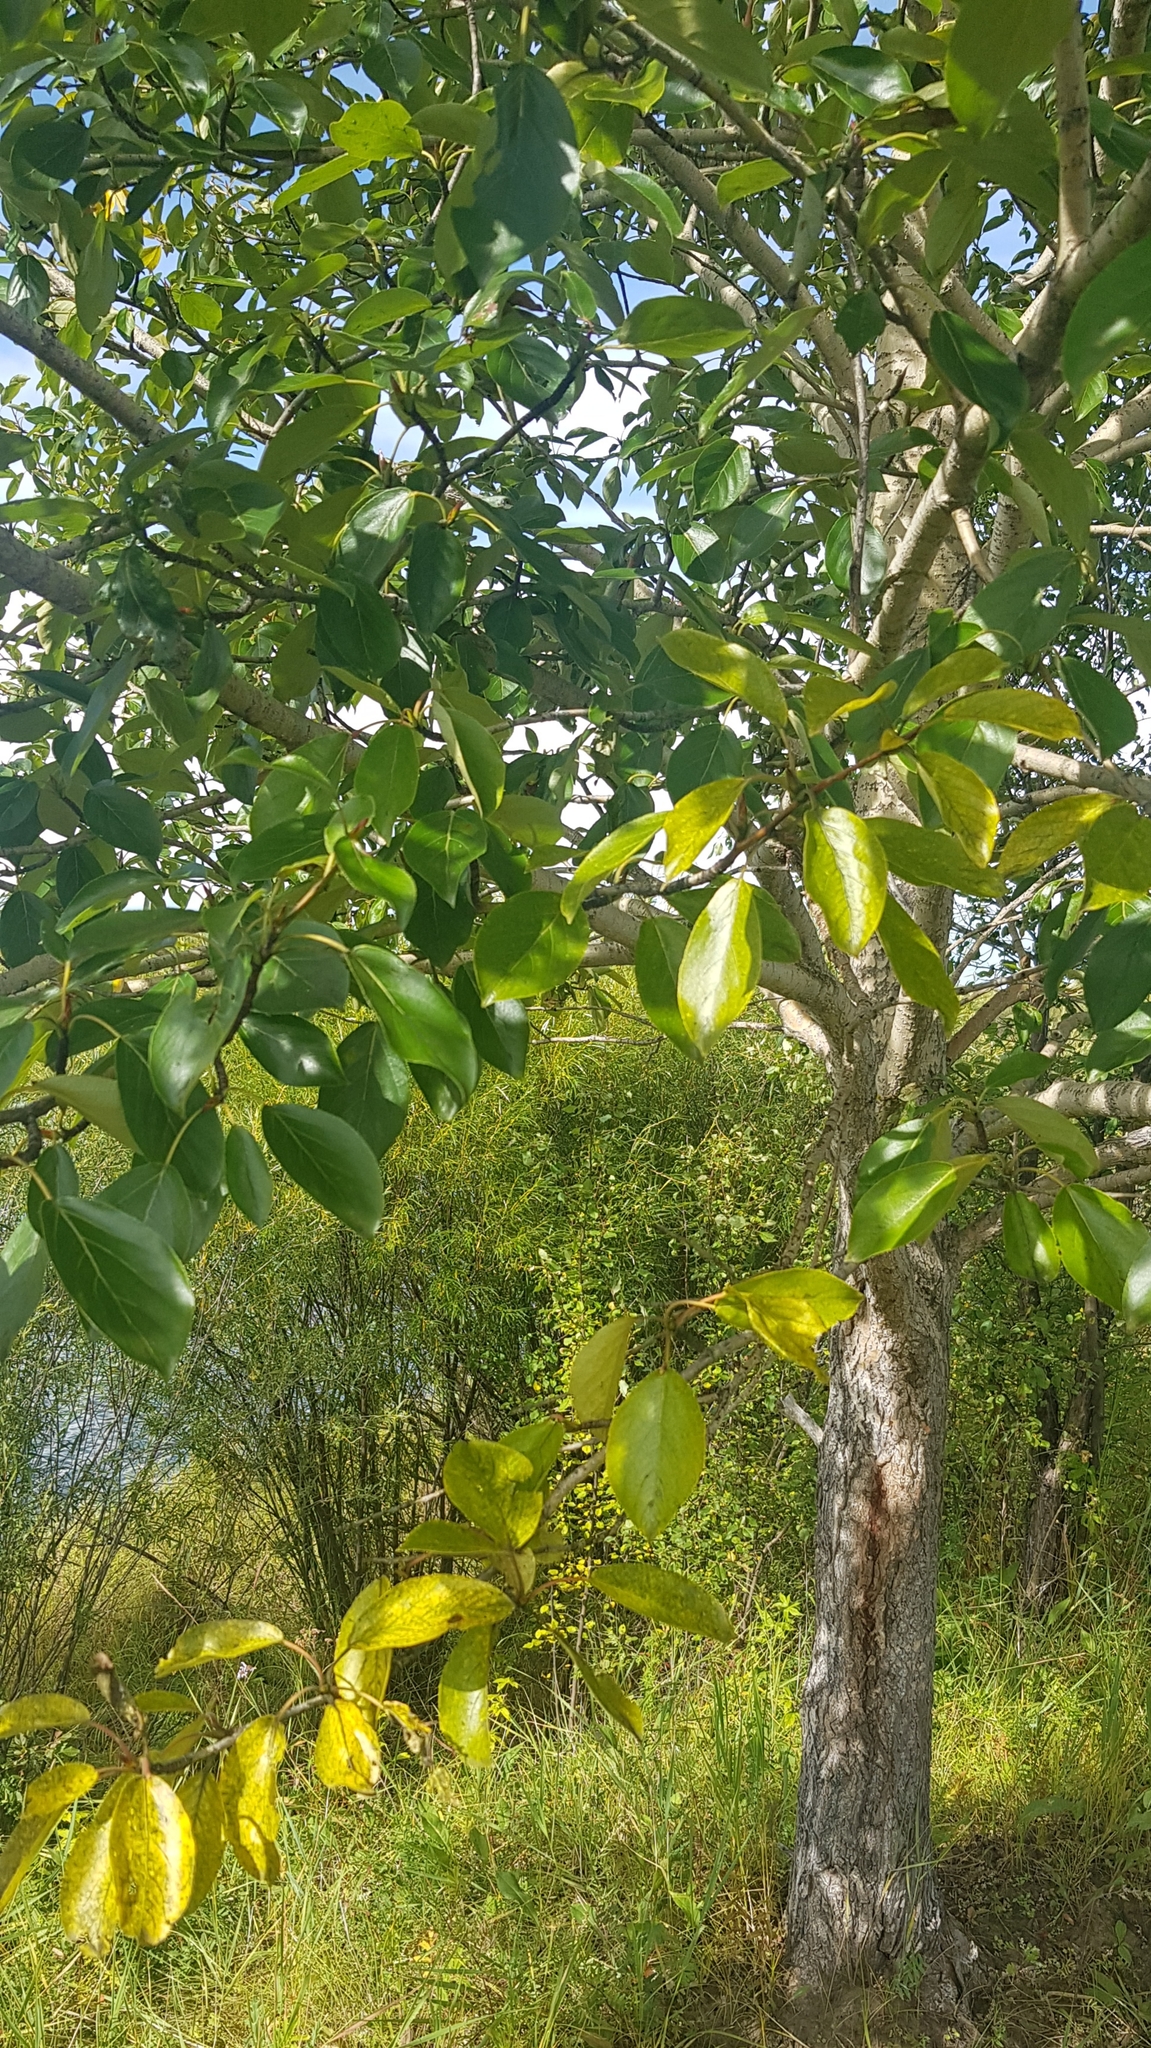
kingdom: Plantae
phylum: Tracheophyta
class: Magnoliopsida
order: Malpighiales
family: Salicaceae
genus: Populus
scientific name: Populus suaveolens
